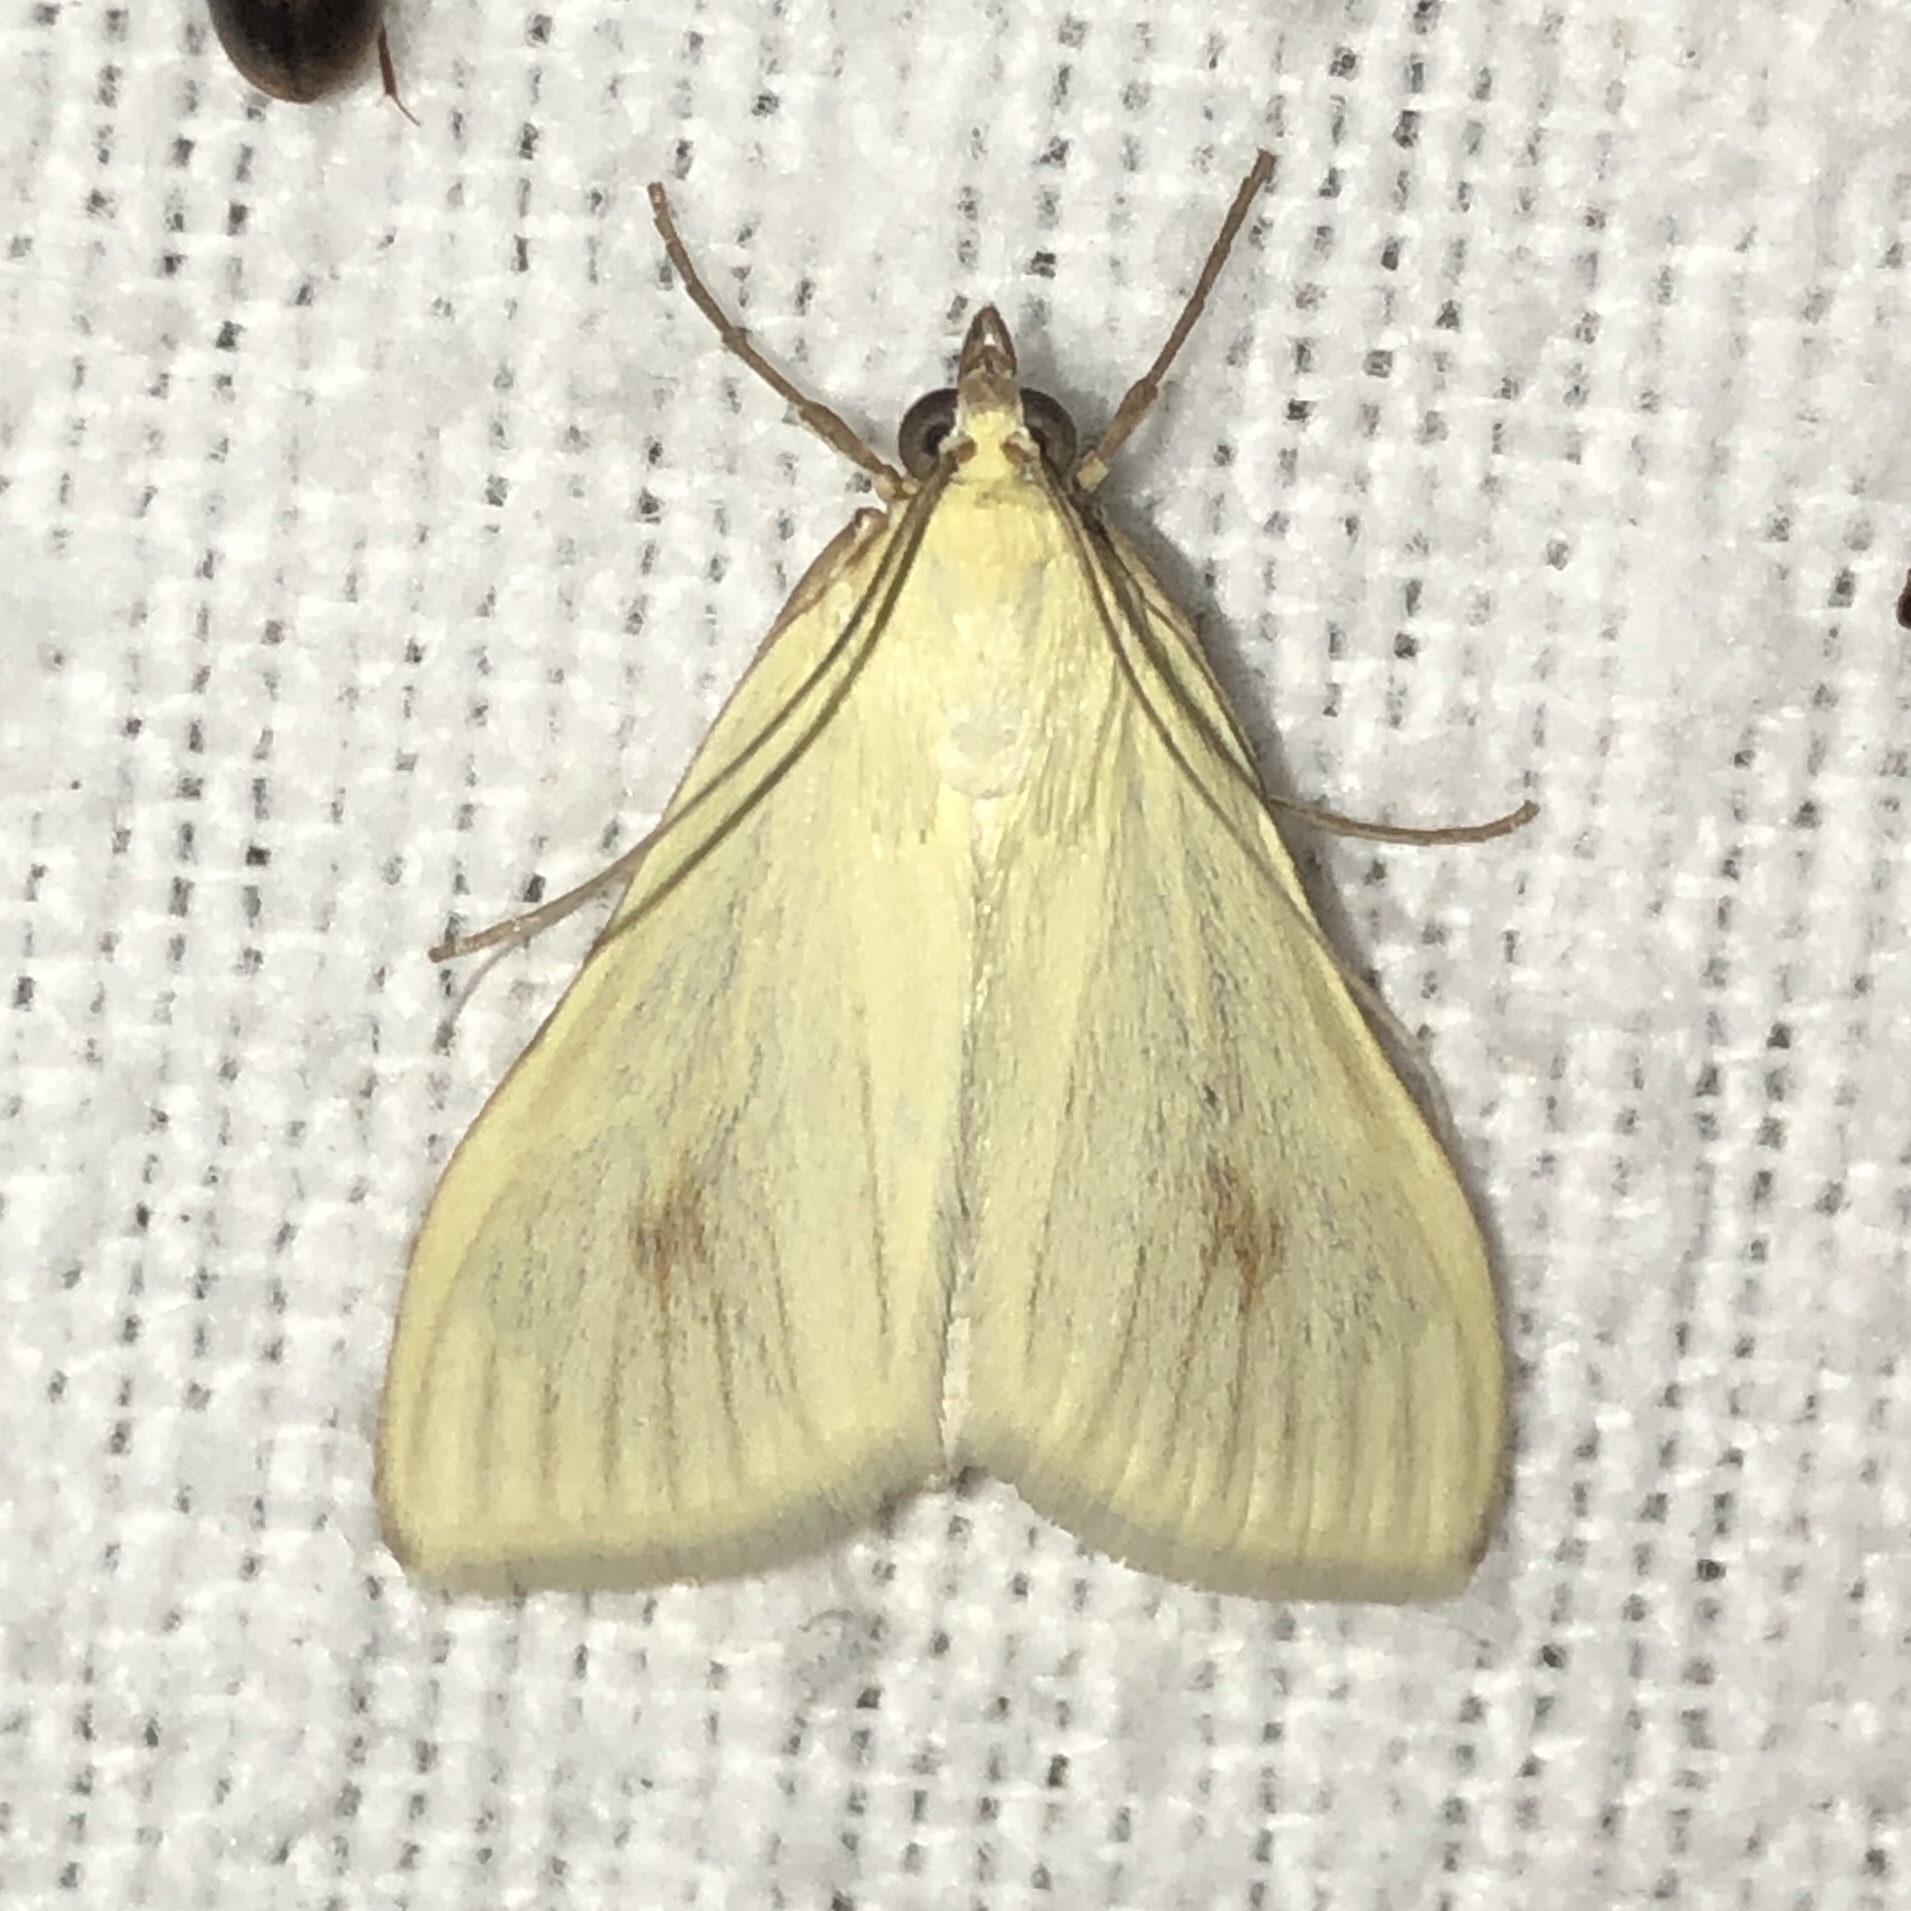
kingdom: Animalia
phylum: Arthropoda
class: Insecta
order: Lepidoptera
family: Crambidae
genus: Sitochroa
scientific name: Sitochroa palealis
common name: Greenish-yellow sitochroa moth
